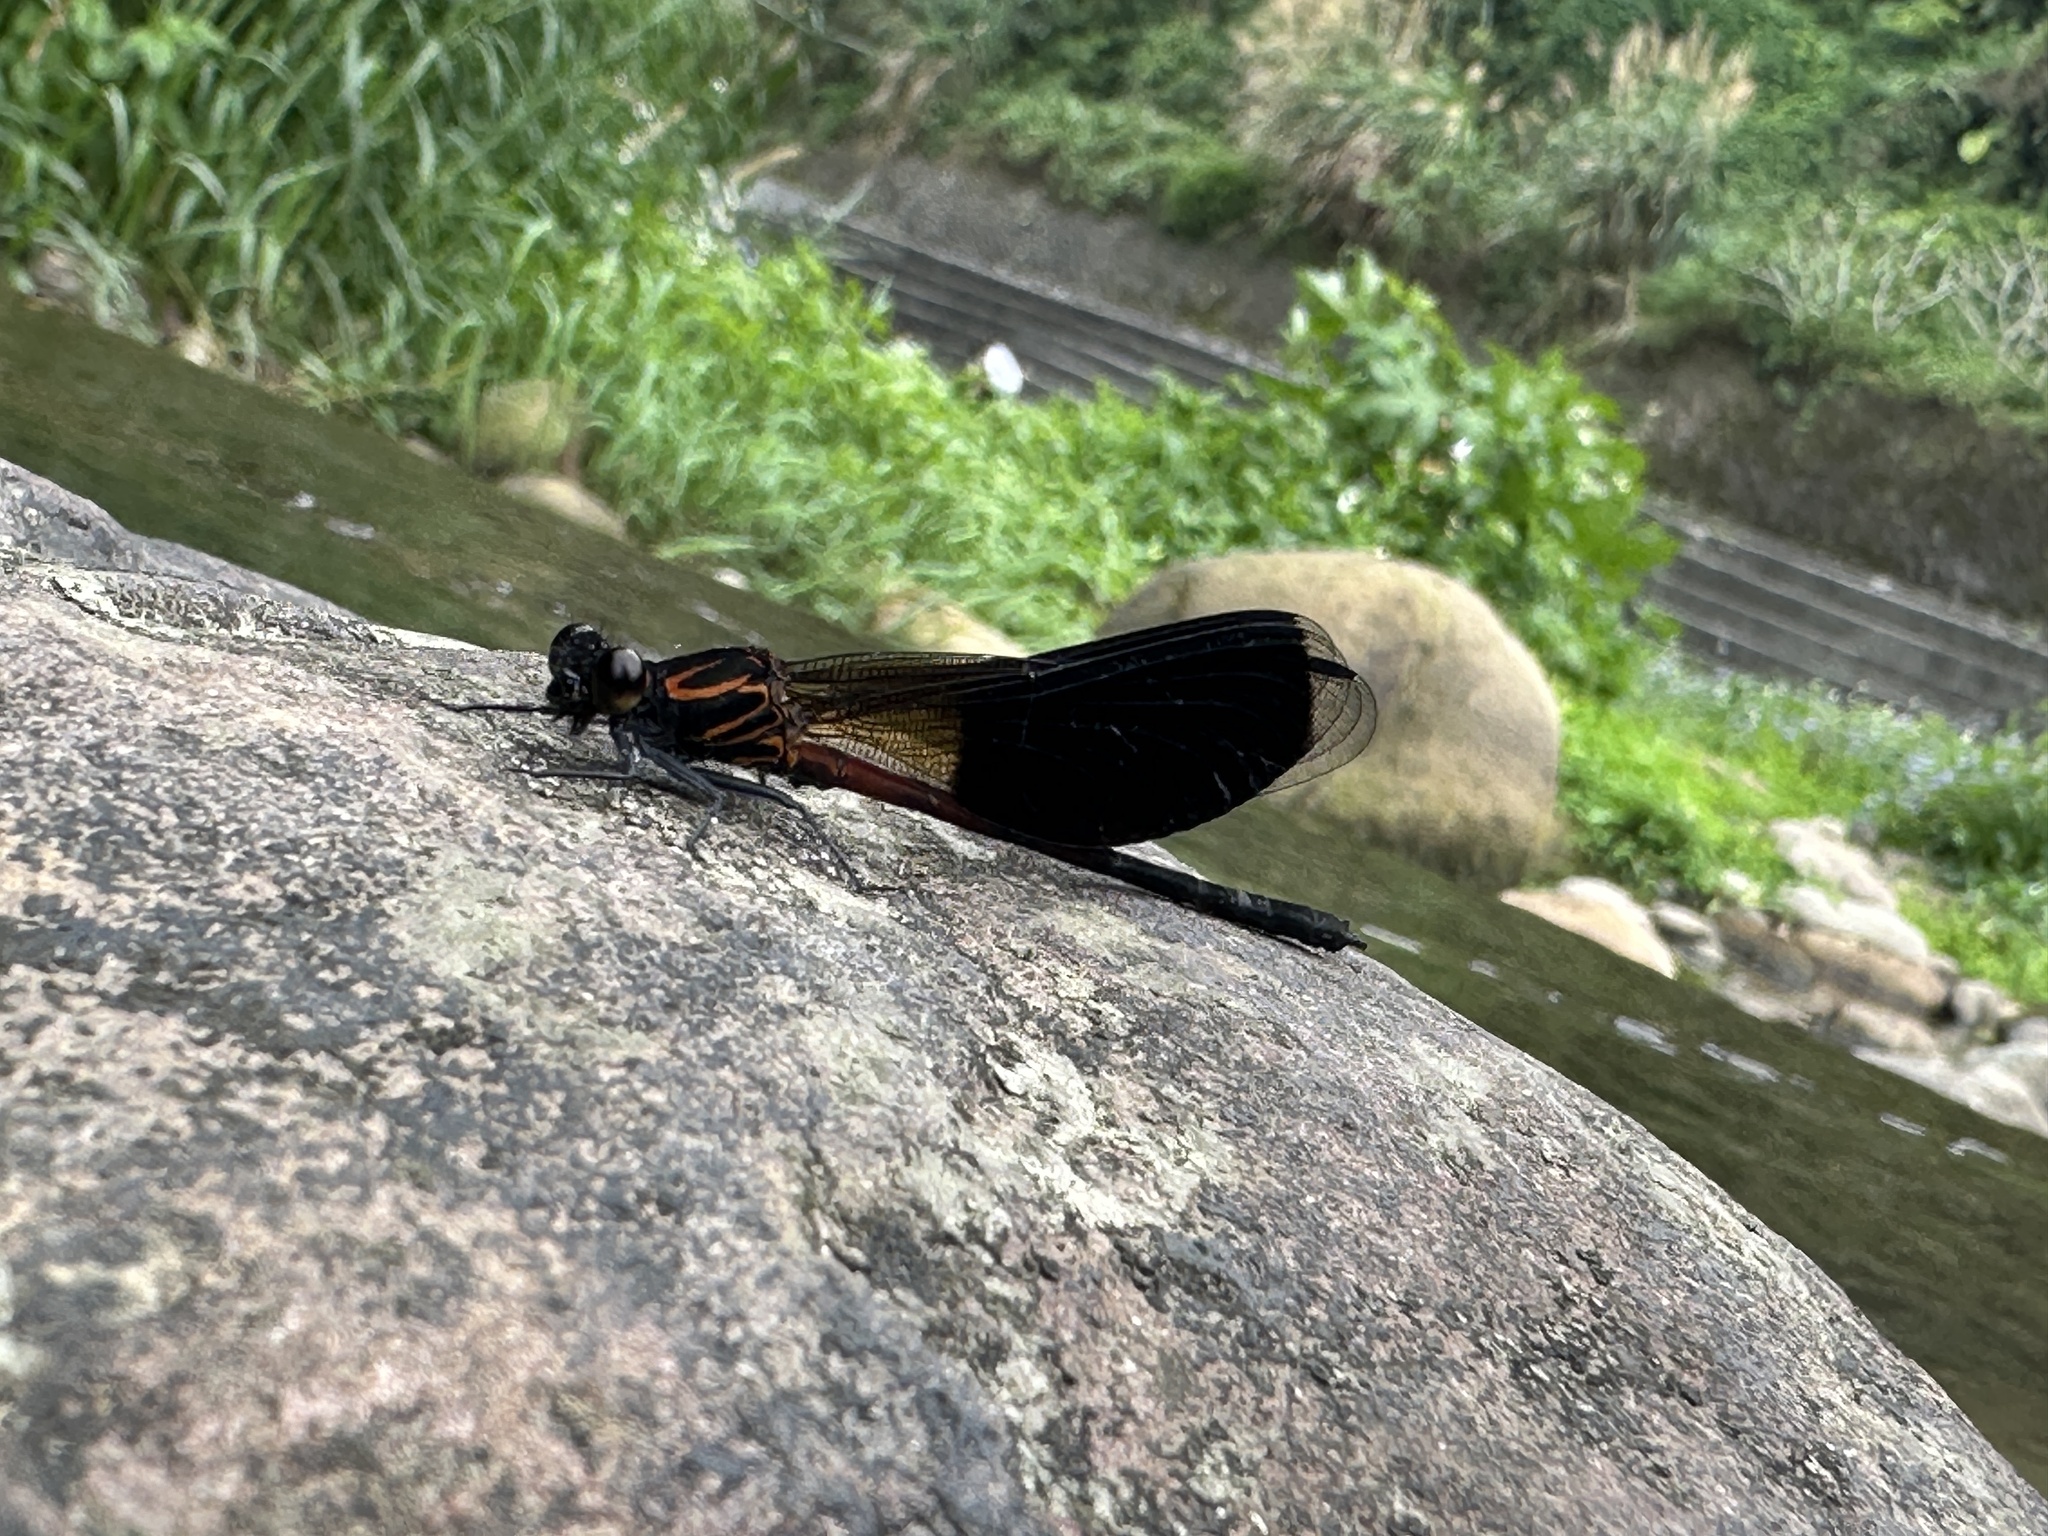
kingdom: Animalia
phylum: Arthropoda
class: Insecta
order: Odonata
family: Euphaeidae
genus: Euphaea
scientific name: Euphaea formosa
